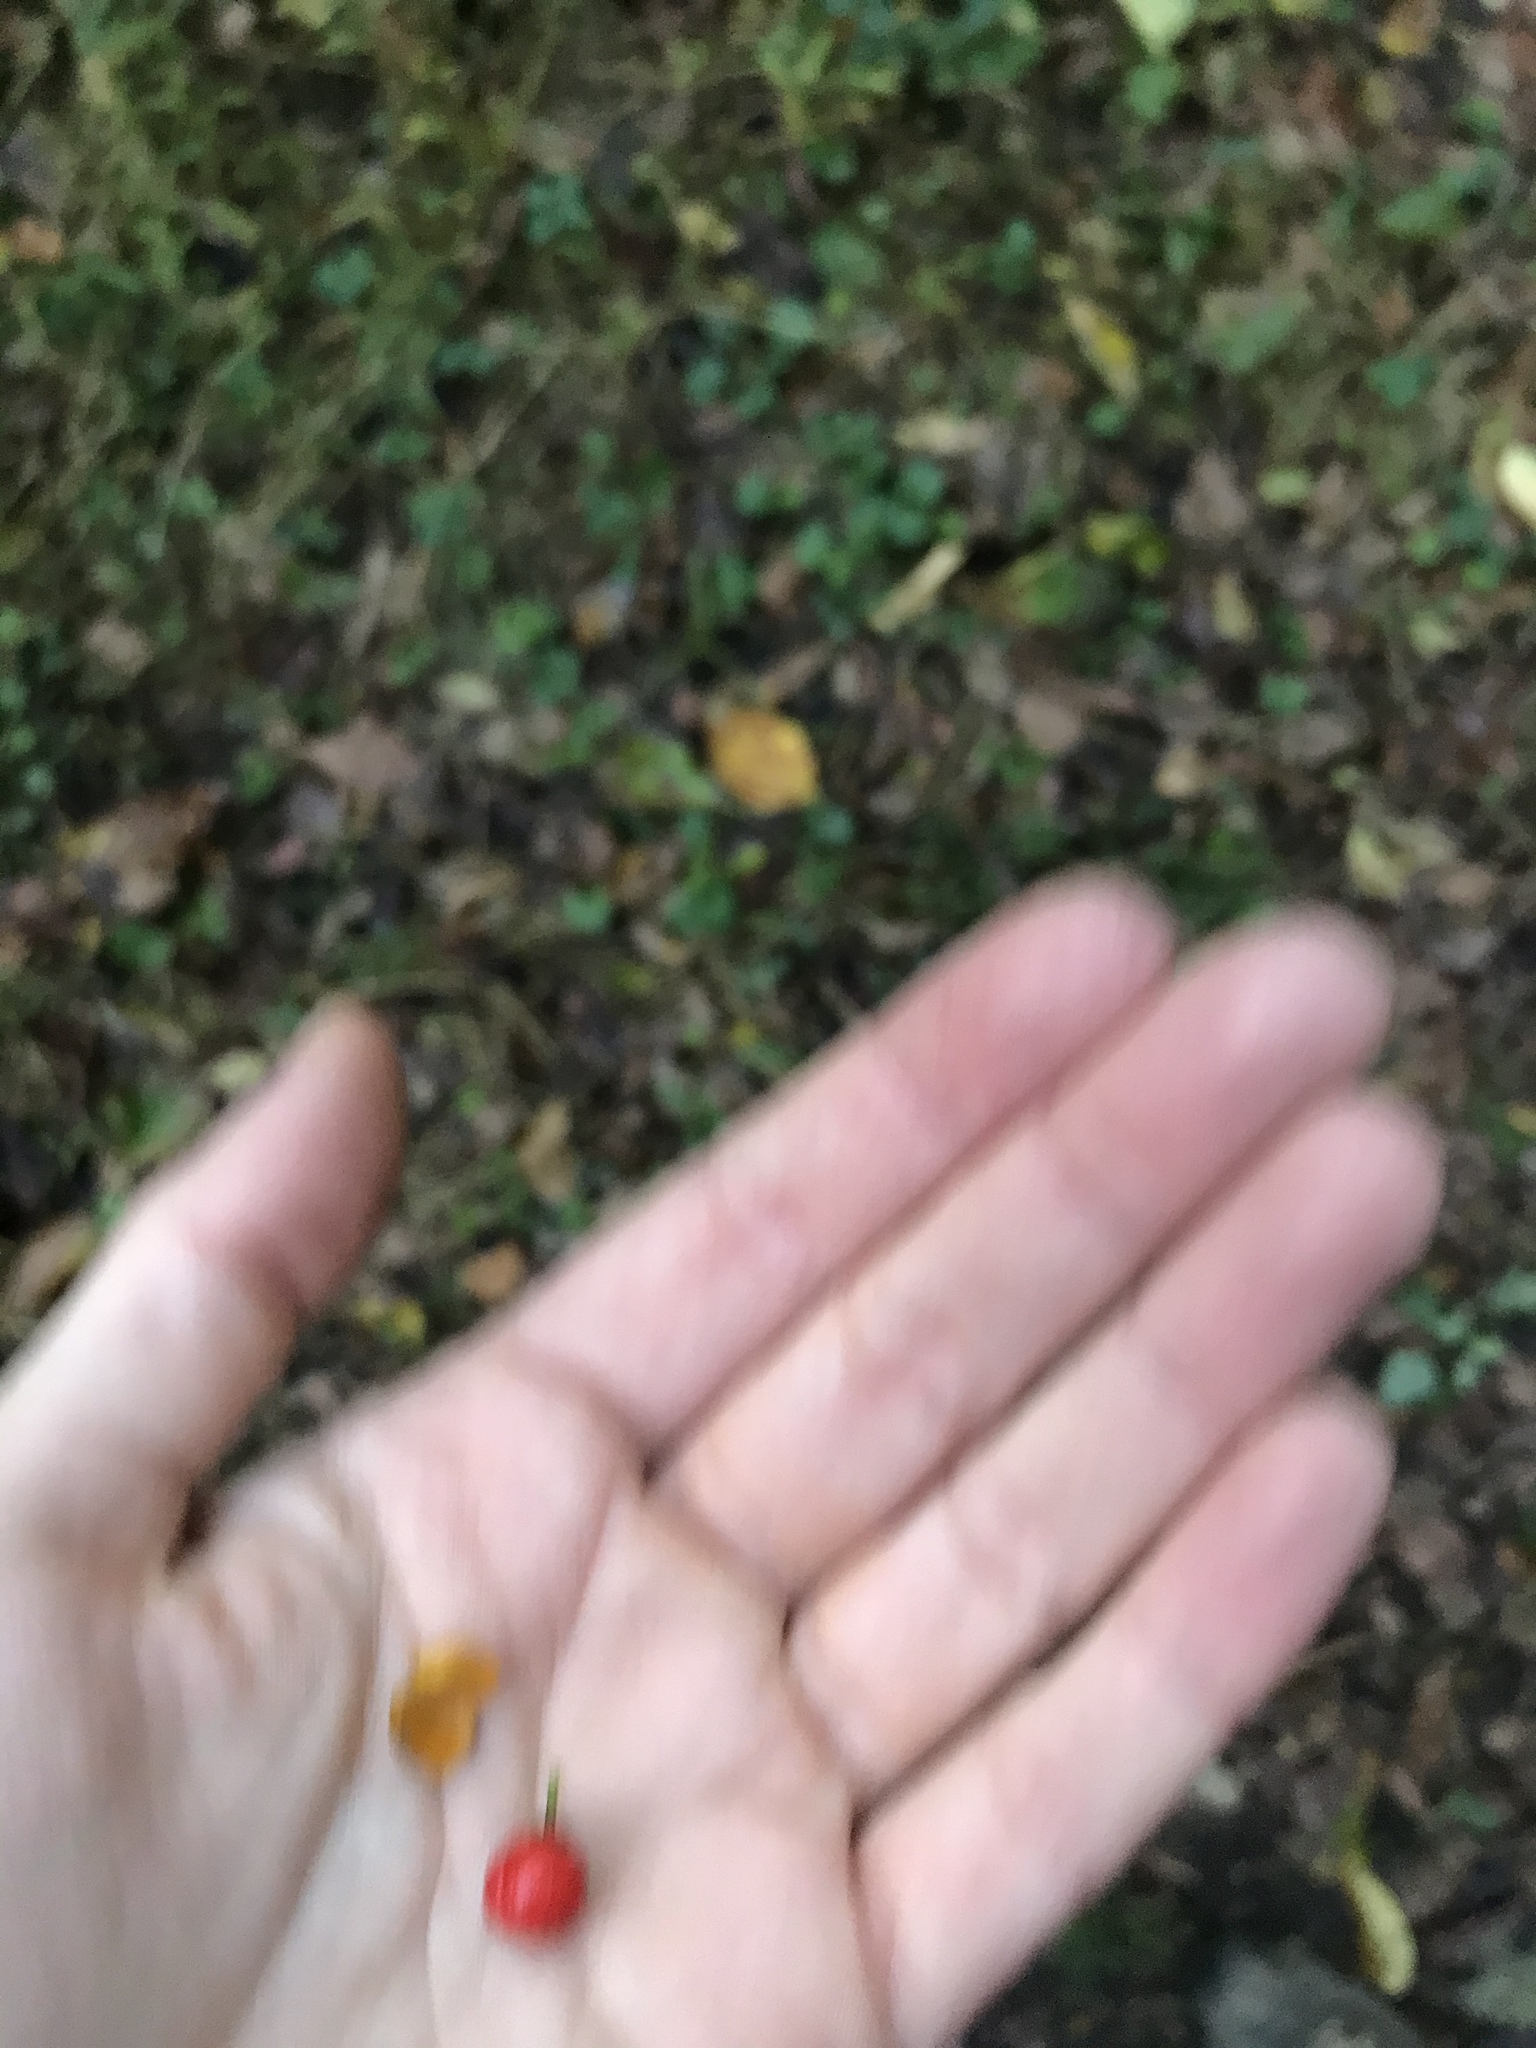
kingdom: Plantae
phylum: Tracheophyta
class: Magnoliopsida
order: Celastrales
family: Celastraceae
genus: Celastrus
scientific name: Celastrus orbiculatus
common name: Oriental bittersweet
